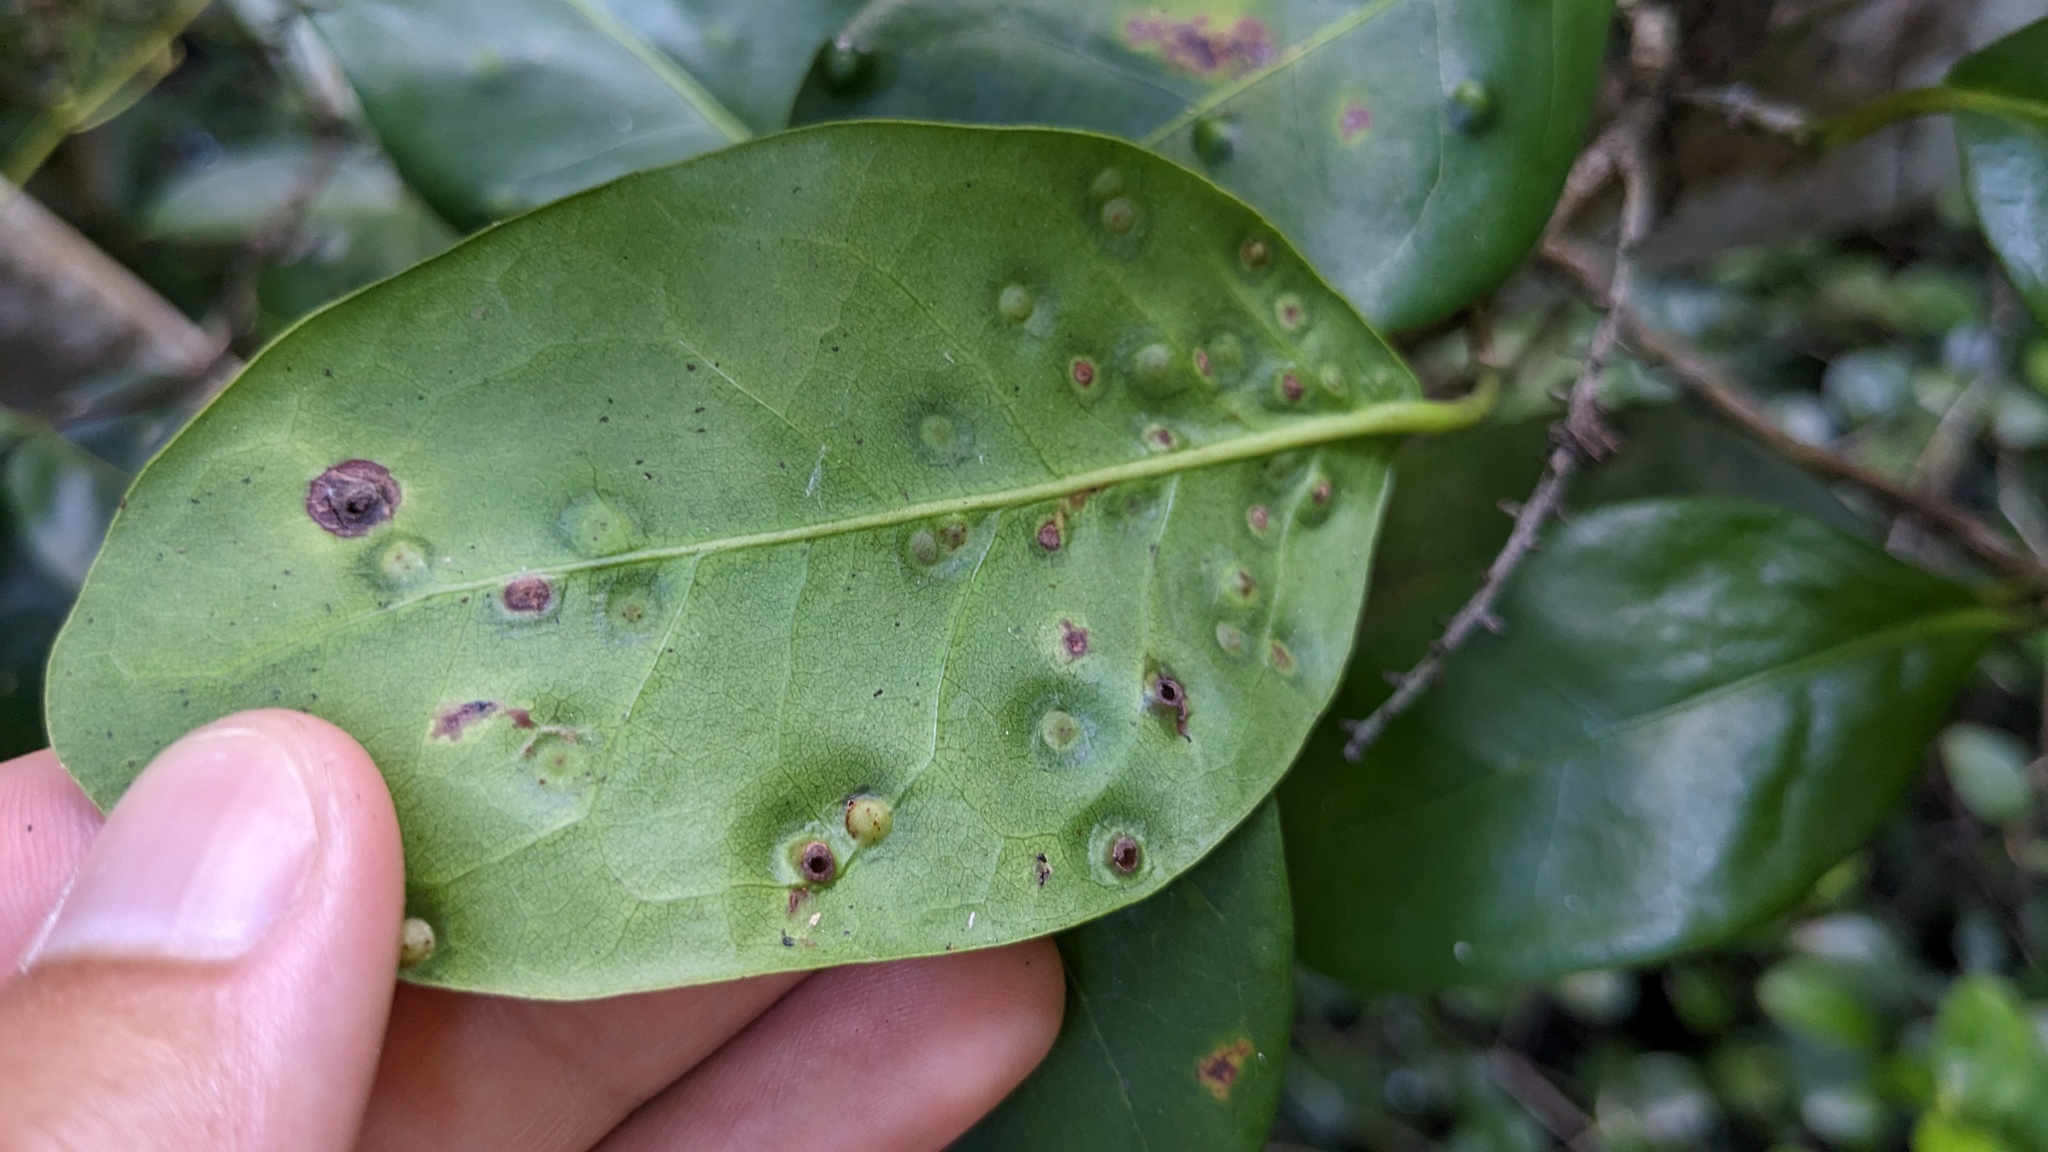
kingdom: Plantae
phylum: Tracheophyta
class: Magnoliopsida
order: Caryophyllales
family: Polygonaceae
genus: Coccoloba
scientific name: Coccoloba diversifolia
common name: Pigeon-plum
